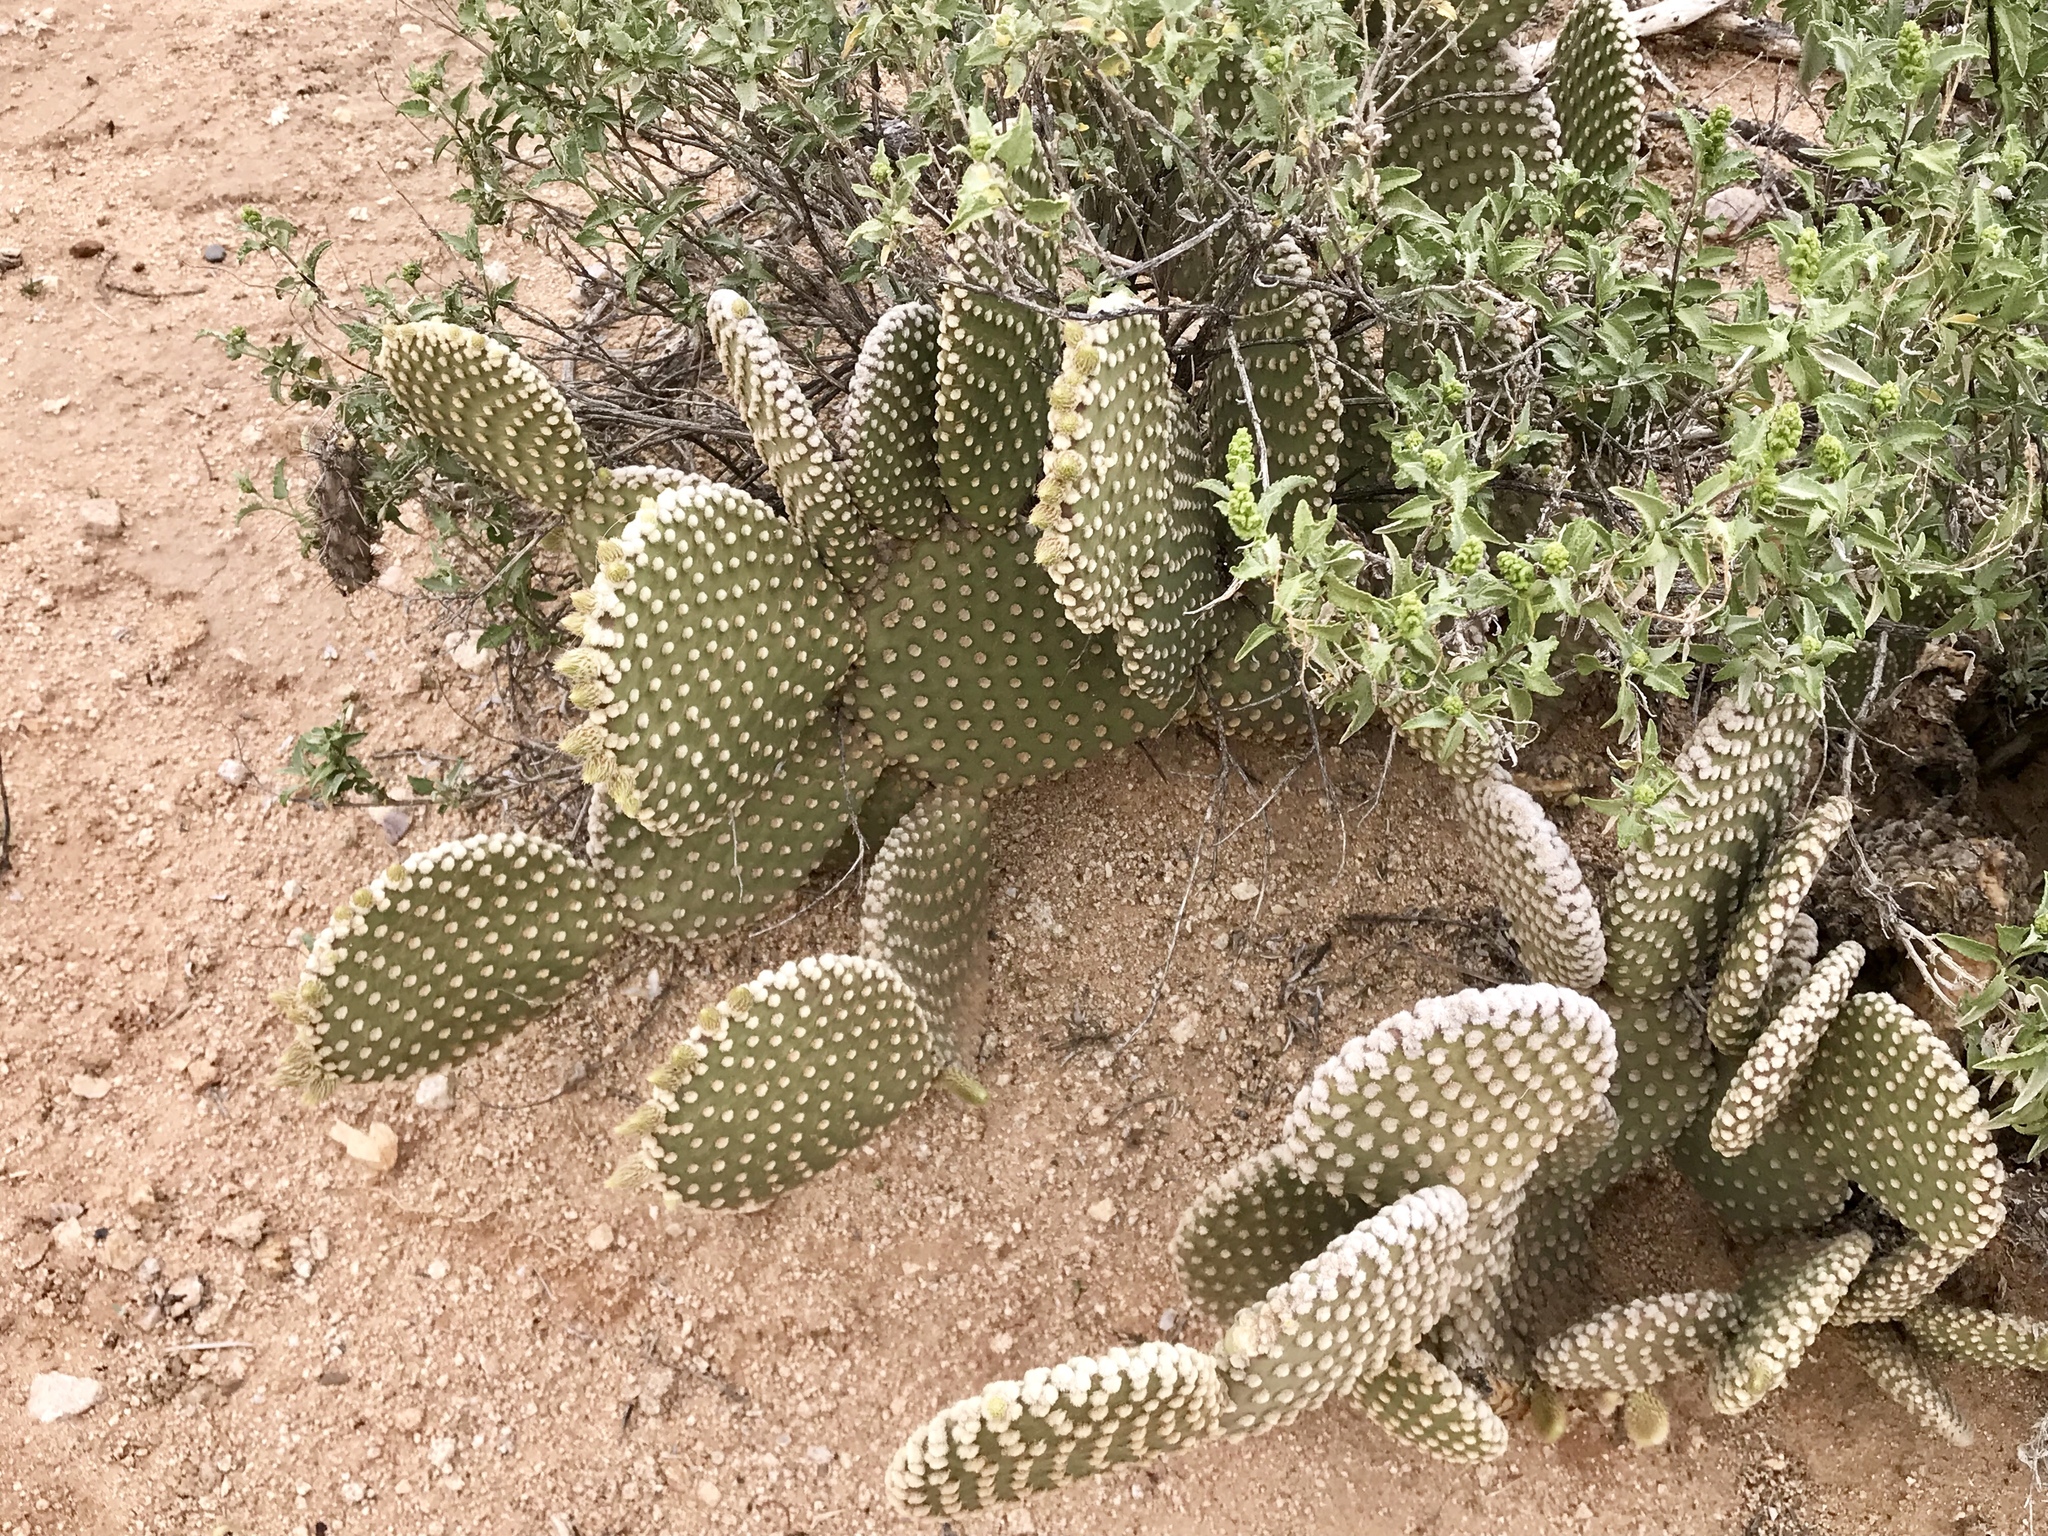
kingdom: Plantae
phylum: Tracheophyta
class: Magnoliopsida
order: Caryophyllales
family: Cactaceae
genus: Opuntia
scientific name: Opuntia microdasys
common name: Angel's-wings
